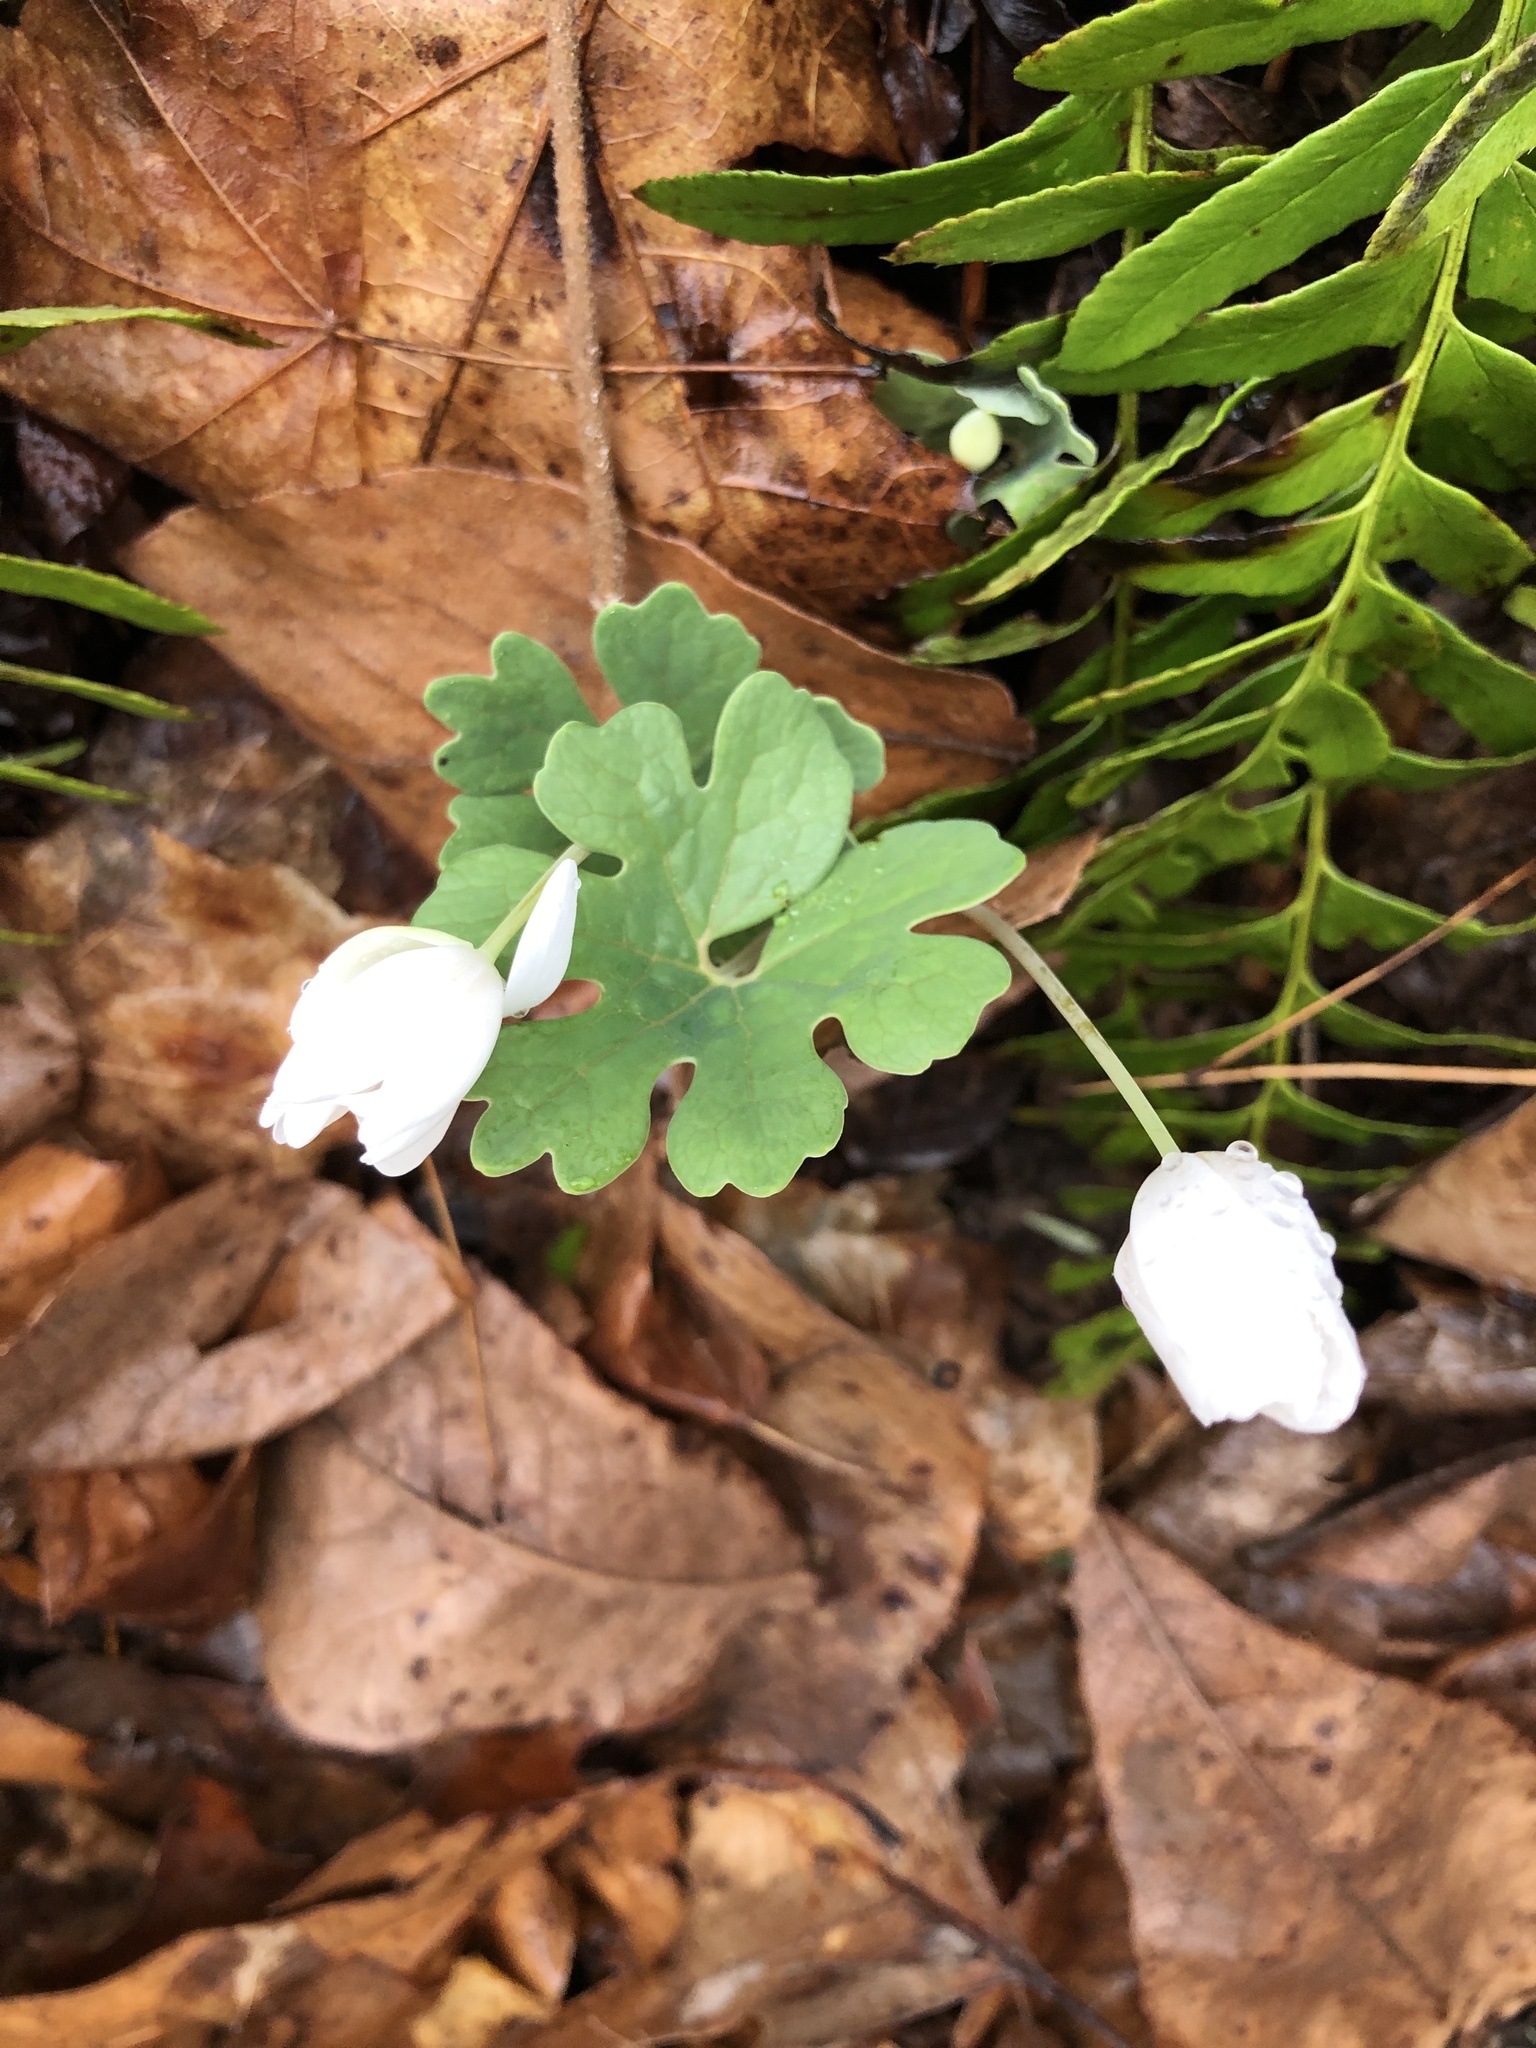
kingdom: Plantae
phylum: Tracheophyta
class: Magnoliopsida
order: Ranunculales
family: Papaveraceae
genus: Sanguinaria
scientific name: Sanguinaria canadensis
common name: Bloodroot
